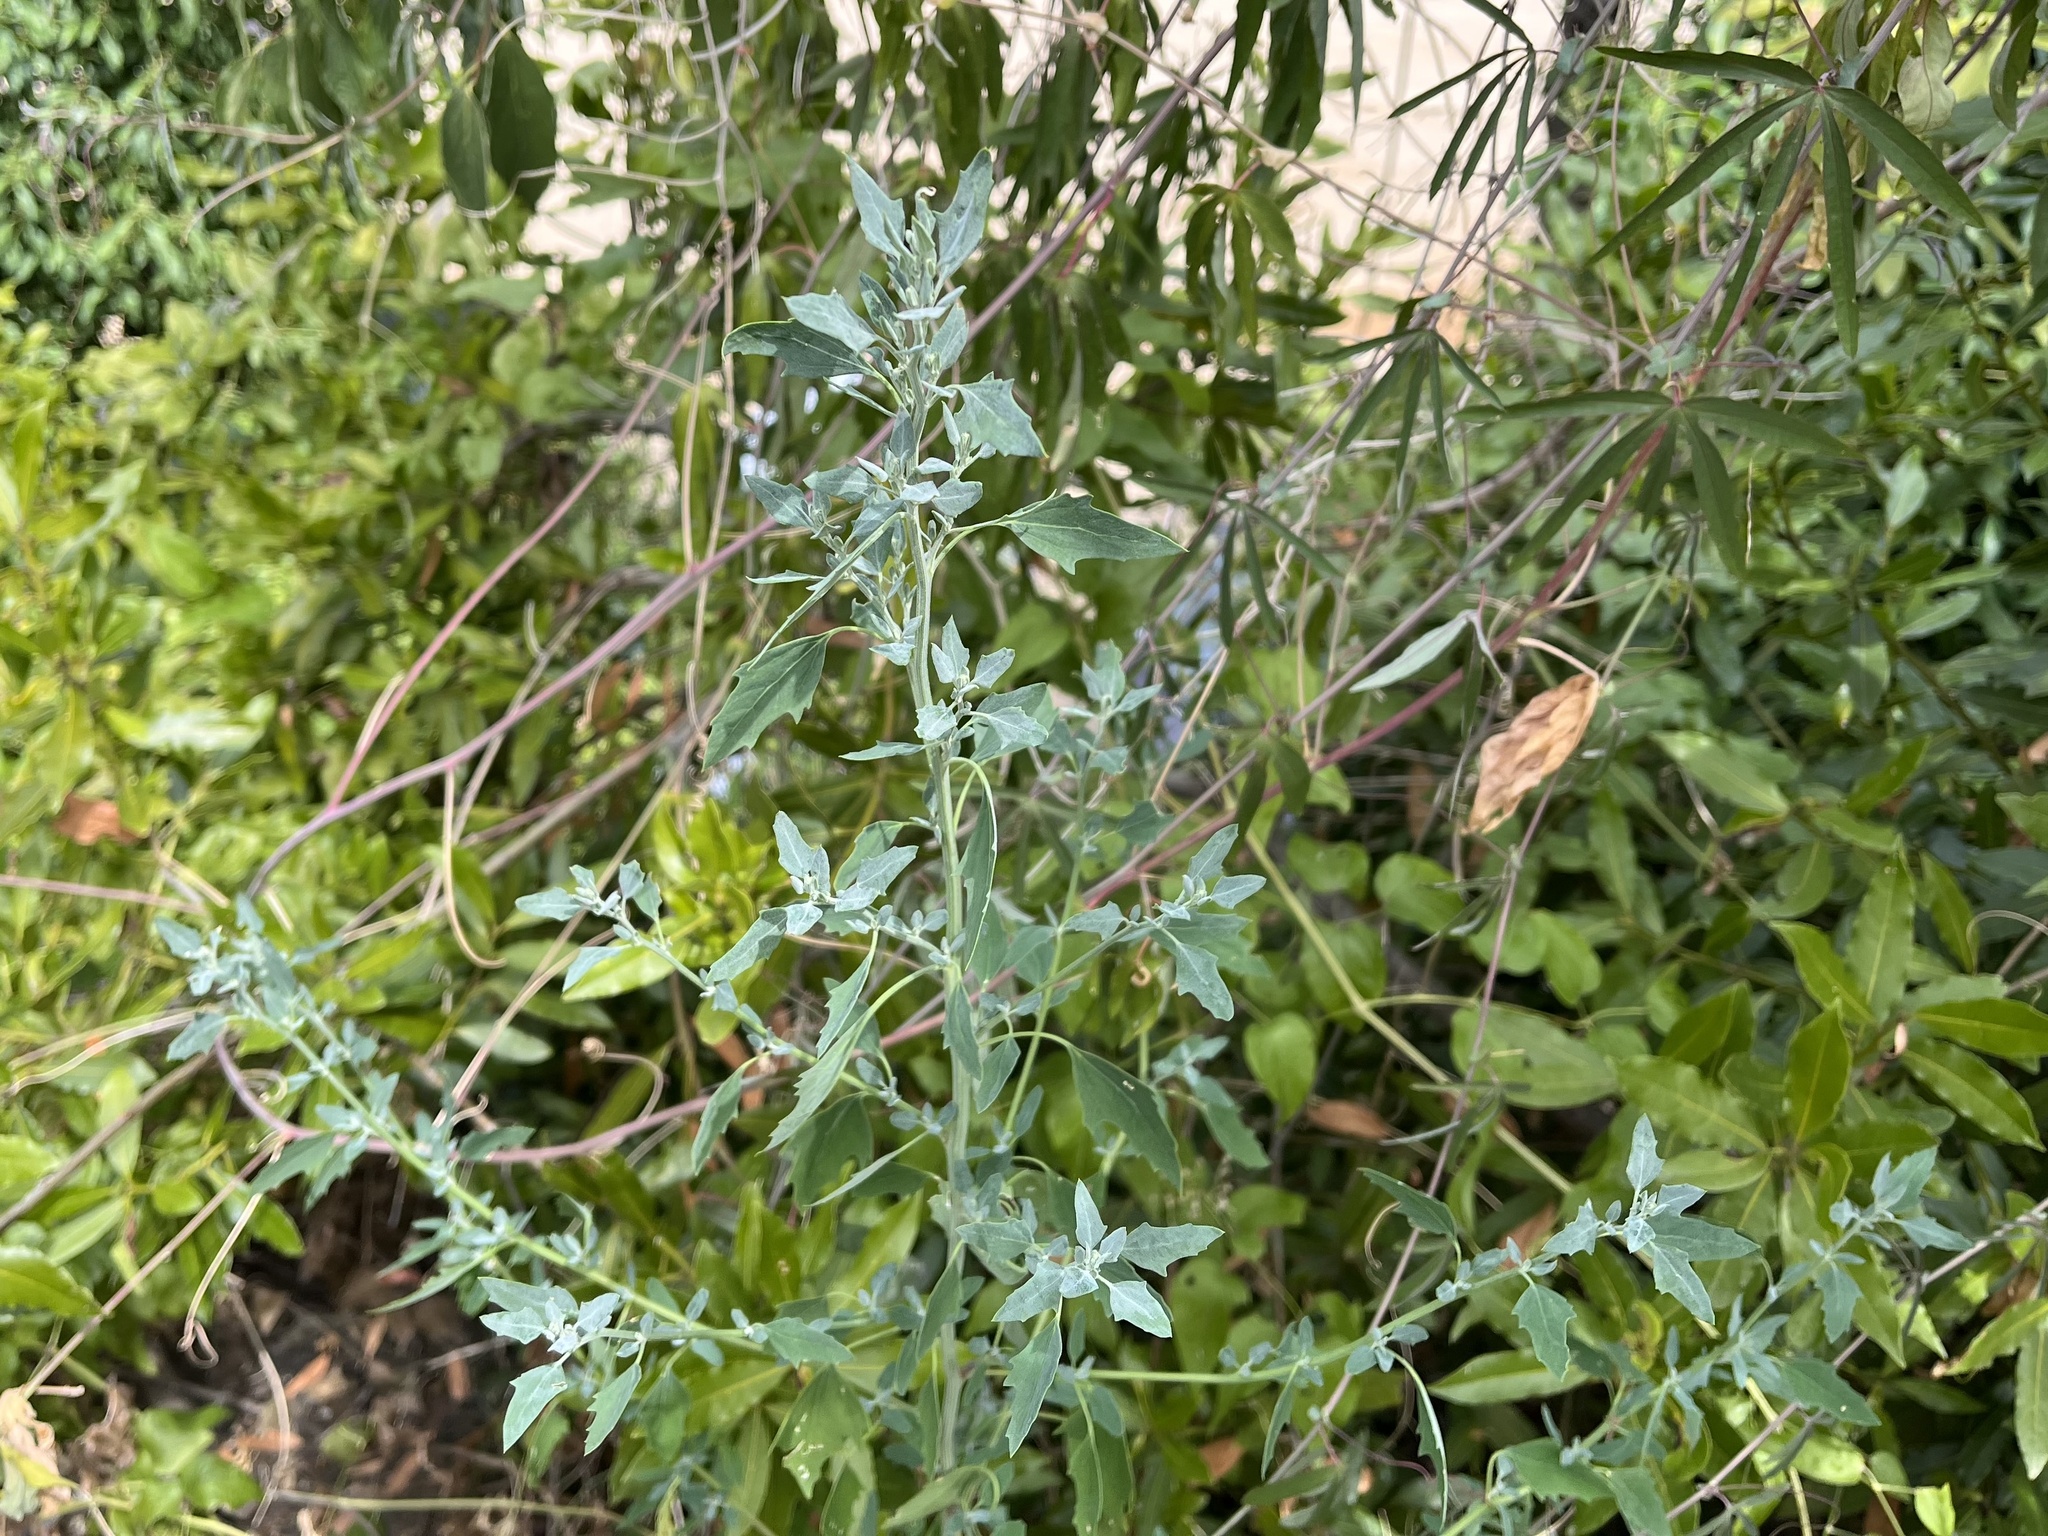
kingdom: Plantae
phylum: Tracheophyta
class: Magnoliopsida
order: Caryophyllales
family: Amaranthaceae
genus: Chenopodium
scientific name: Chenopodium album
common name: Fat-hen
